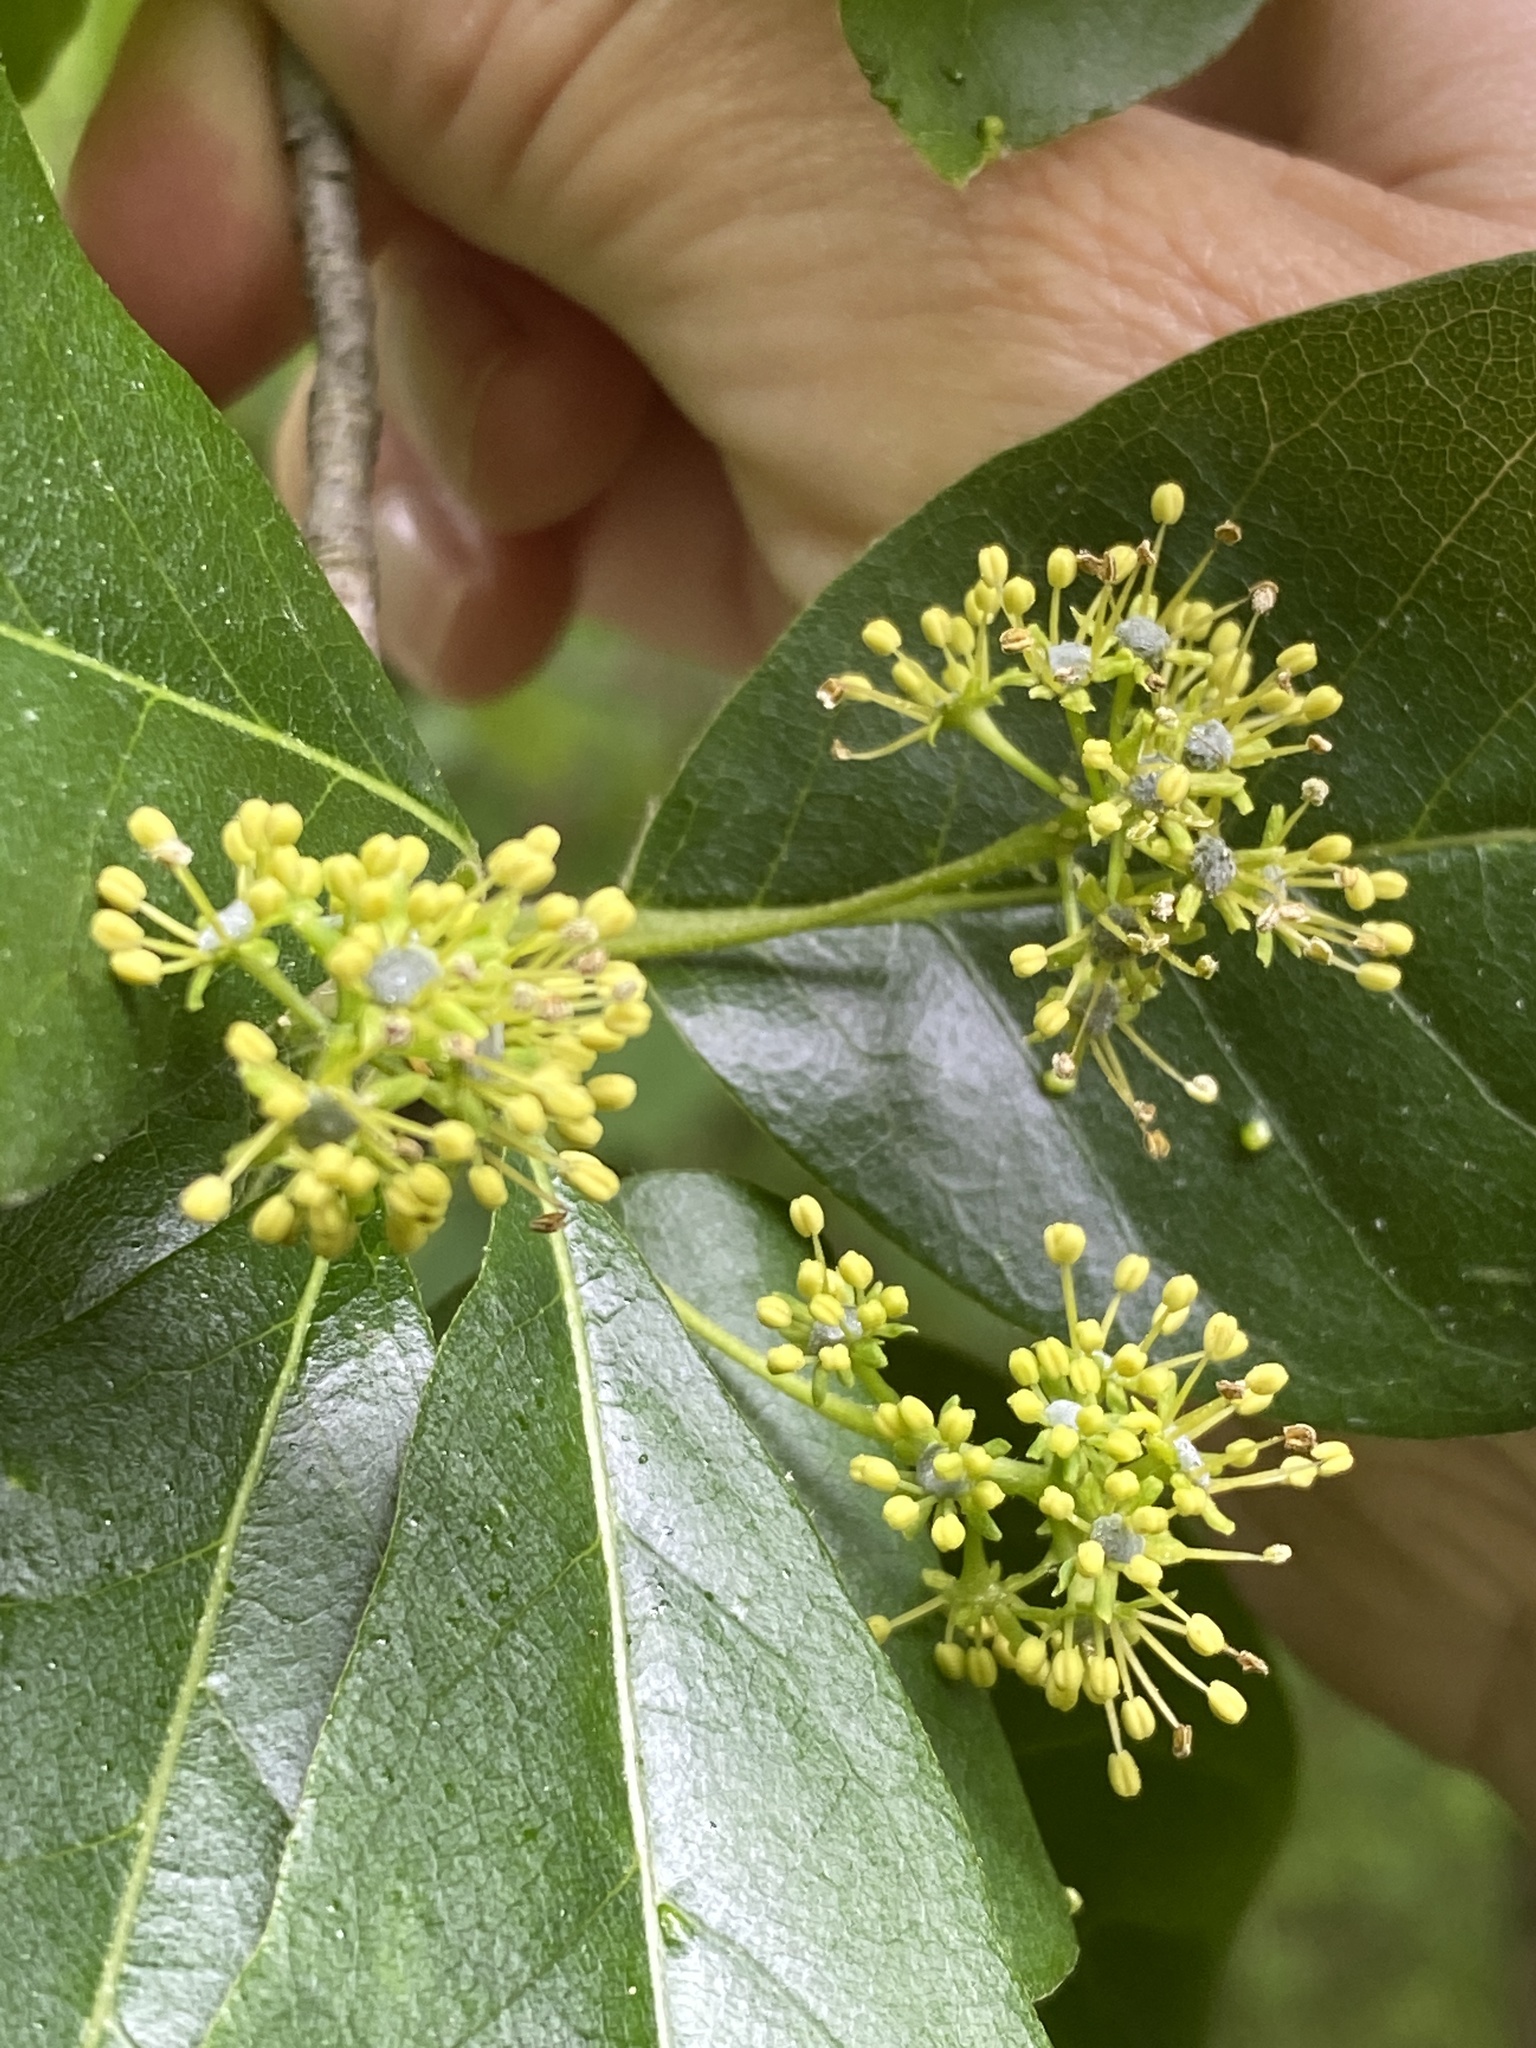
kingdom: Plantae
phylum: Tracheophyta
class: Magnoliopsida
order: Cornales
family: Nyssaceae
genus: Nyssa
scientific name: Nyssa sylvatica
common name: Black tupelo
